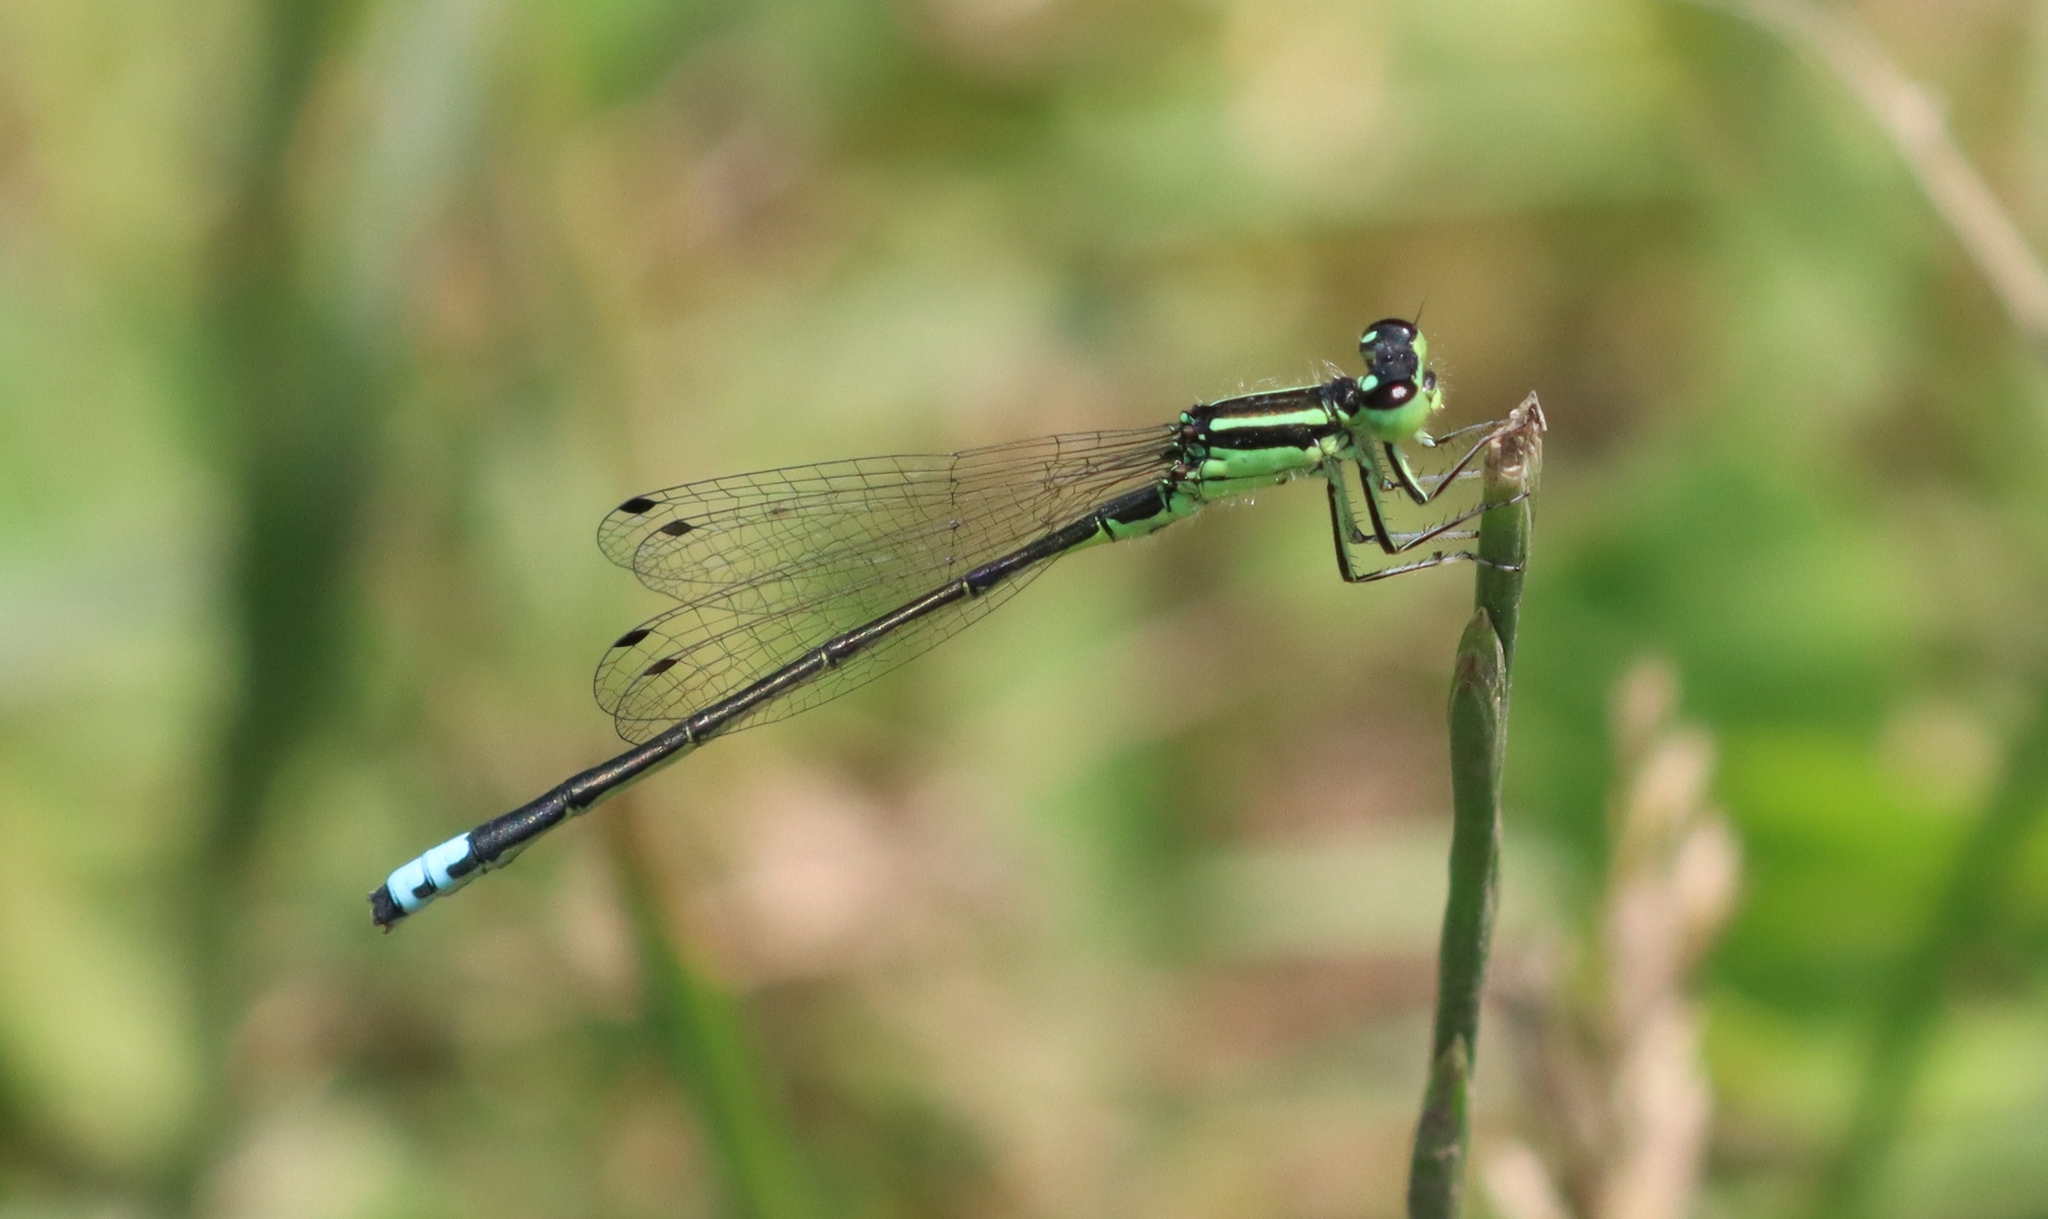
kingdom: Animalia
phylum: Arthropoda
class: Insecta
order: Odonata
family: Coenagrionidae
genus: Ischnura
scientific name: Ischnura verticalis
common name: Eastern forktail
